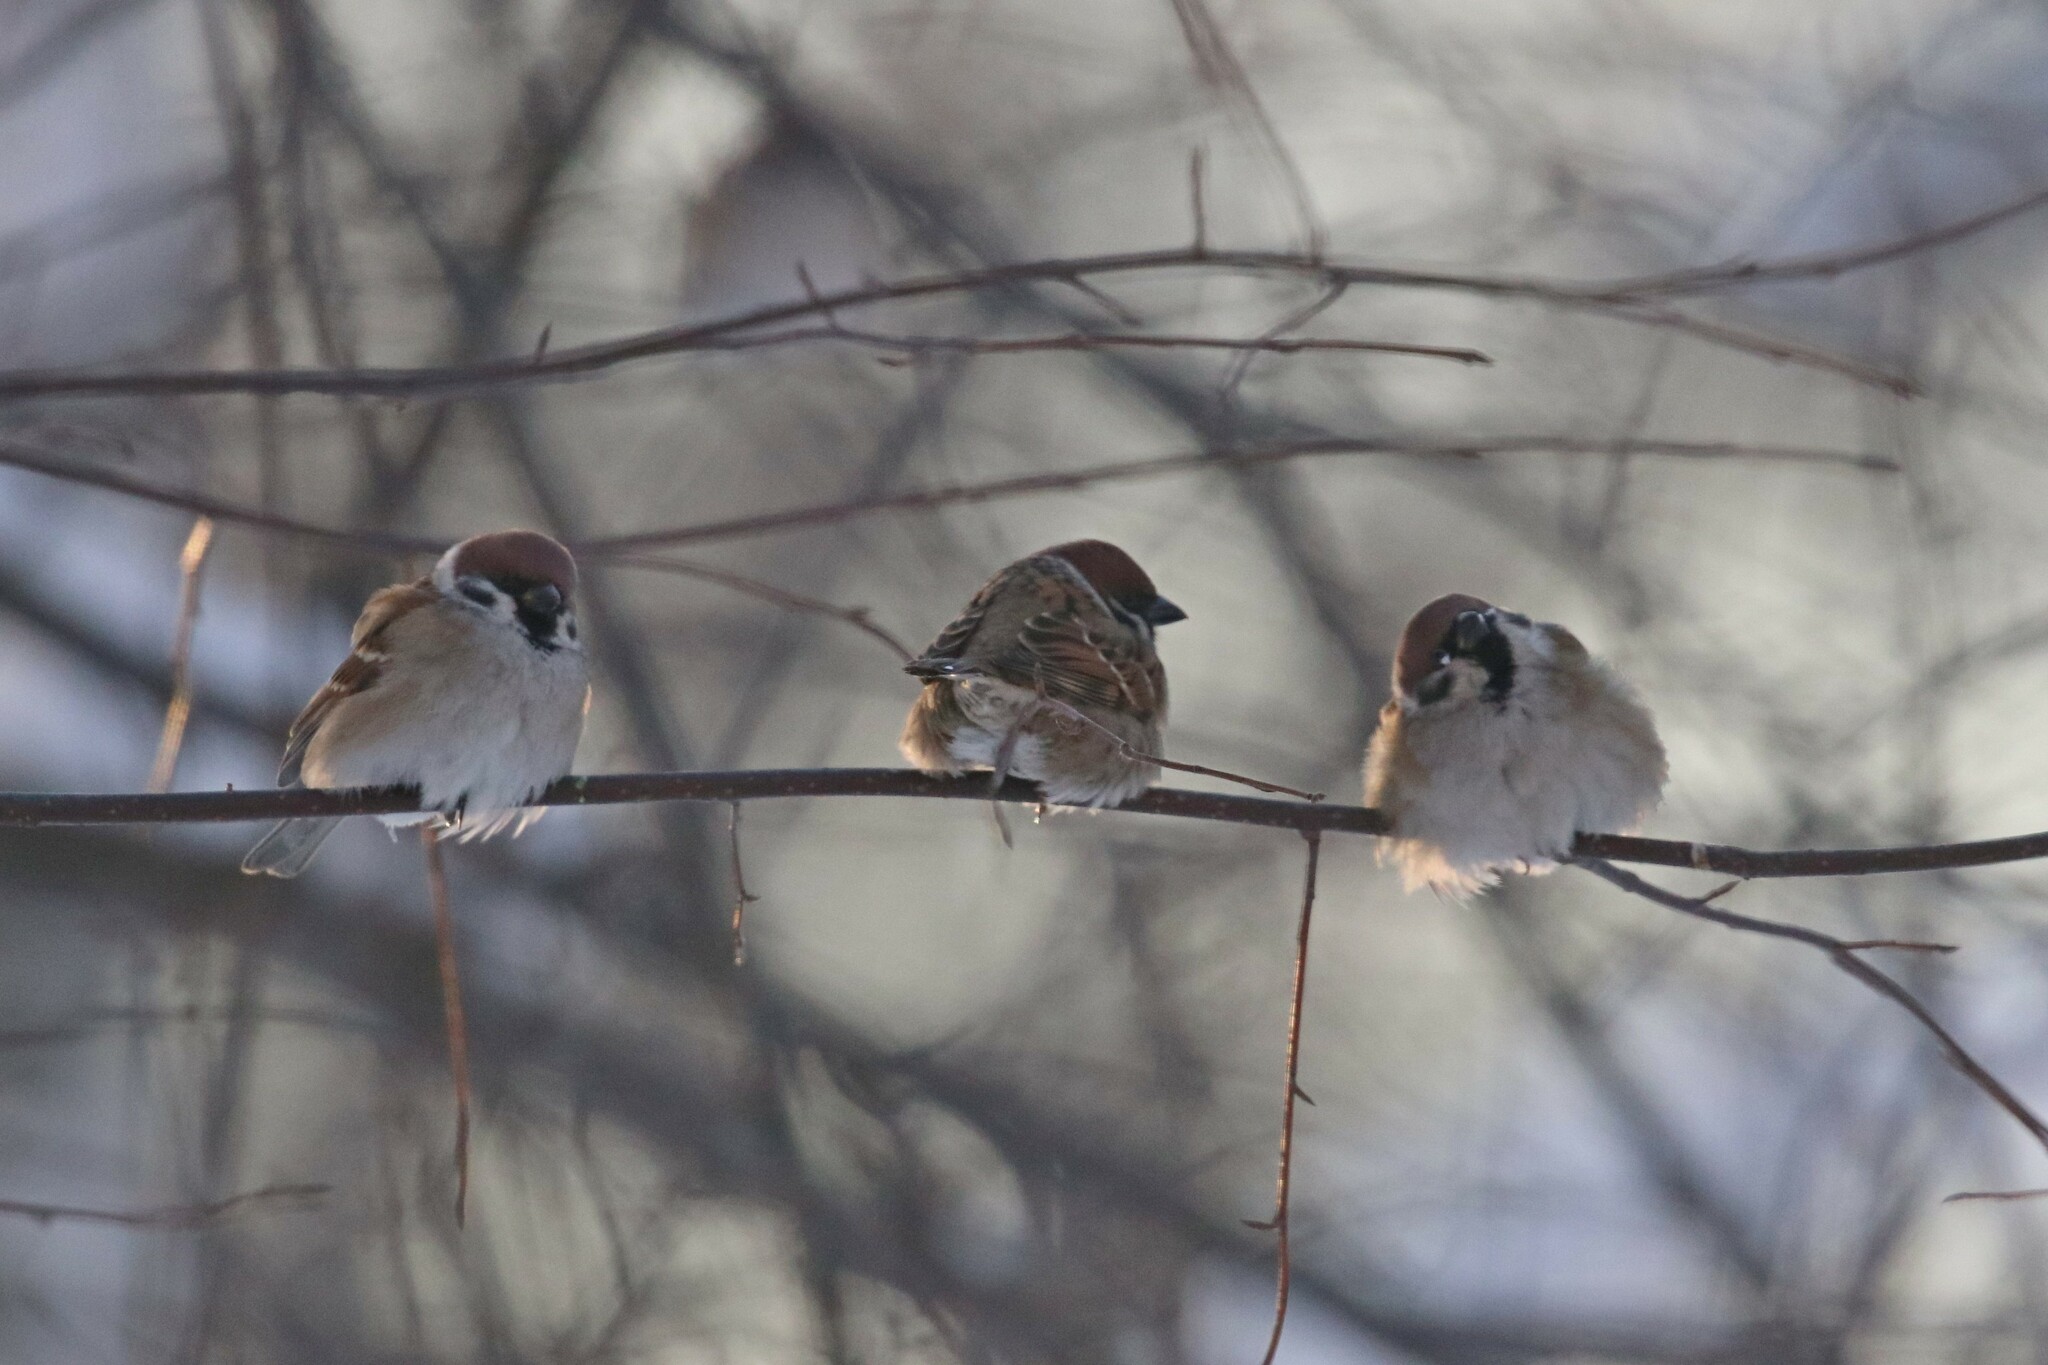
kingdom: Animalia
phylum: Chordata
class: Aves
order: Passeriformes
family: Passeridae
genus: Passer
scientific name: Passer montanus
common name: Eurasian tree sparrow
